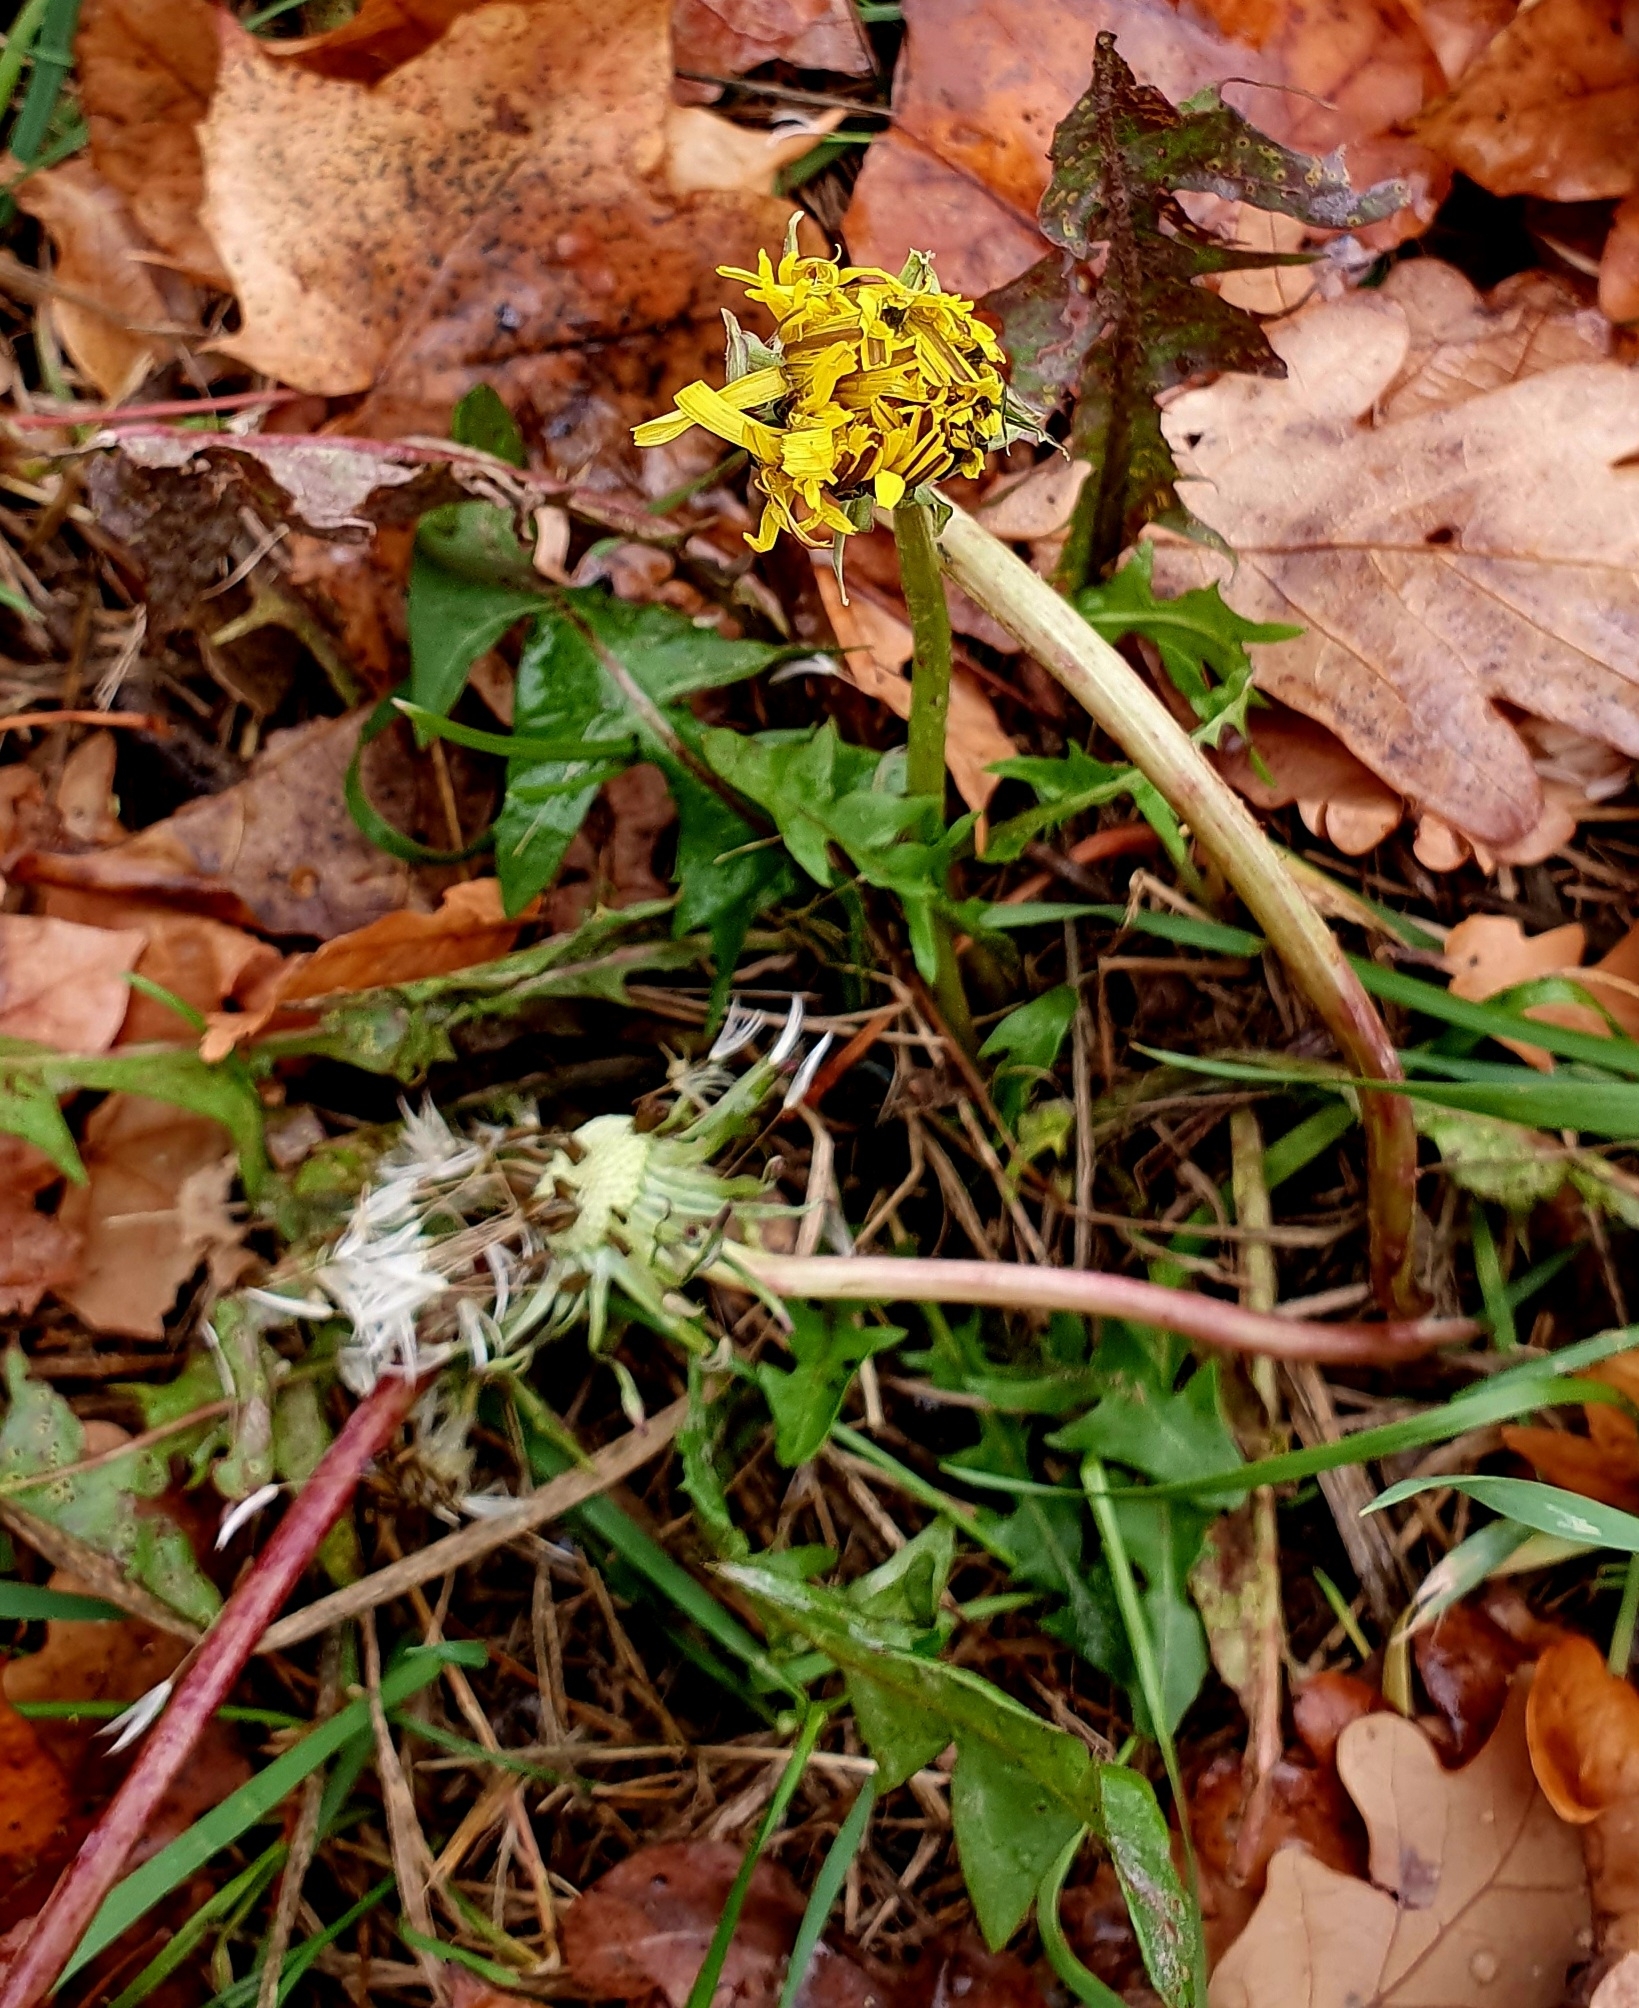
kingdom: Plantae
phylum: Tracheophyta
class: Magnoliopsida
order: Asterales
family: Asteraceae
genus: Taraxacum
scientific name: Taraxacum officinale
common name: Common dandelion
